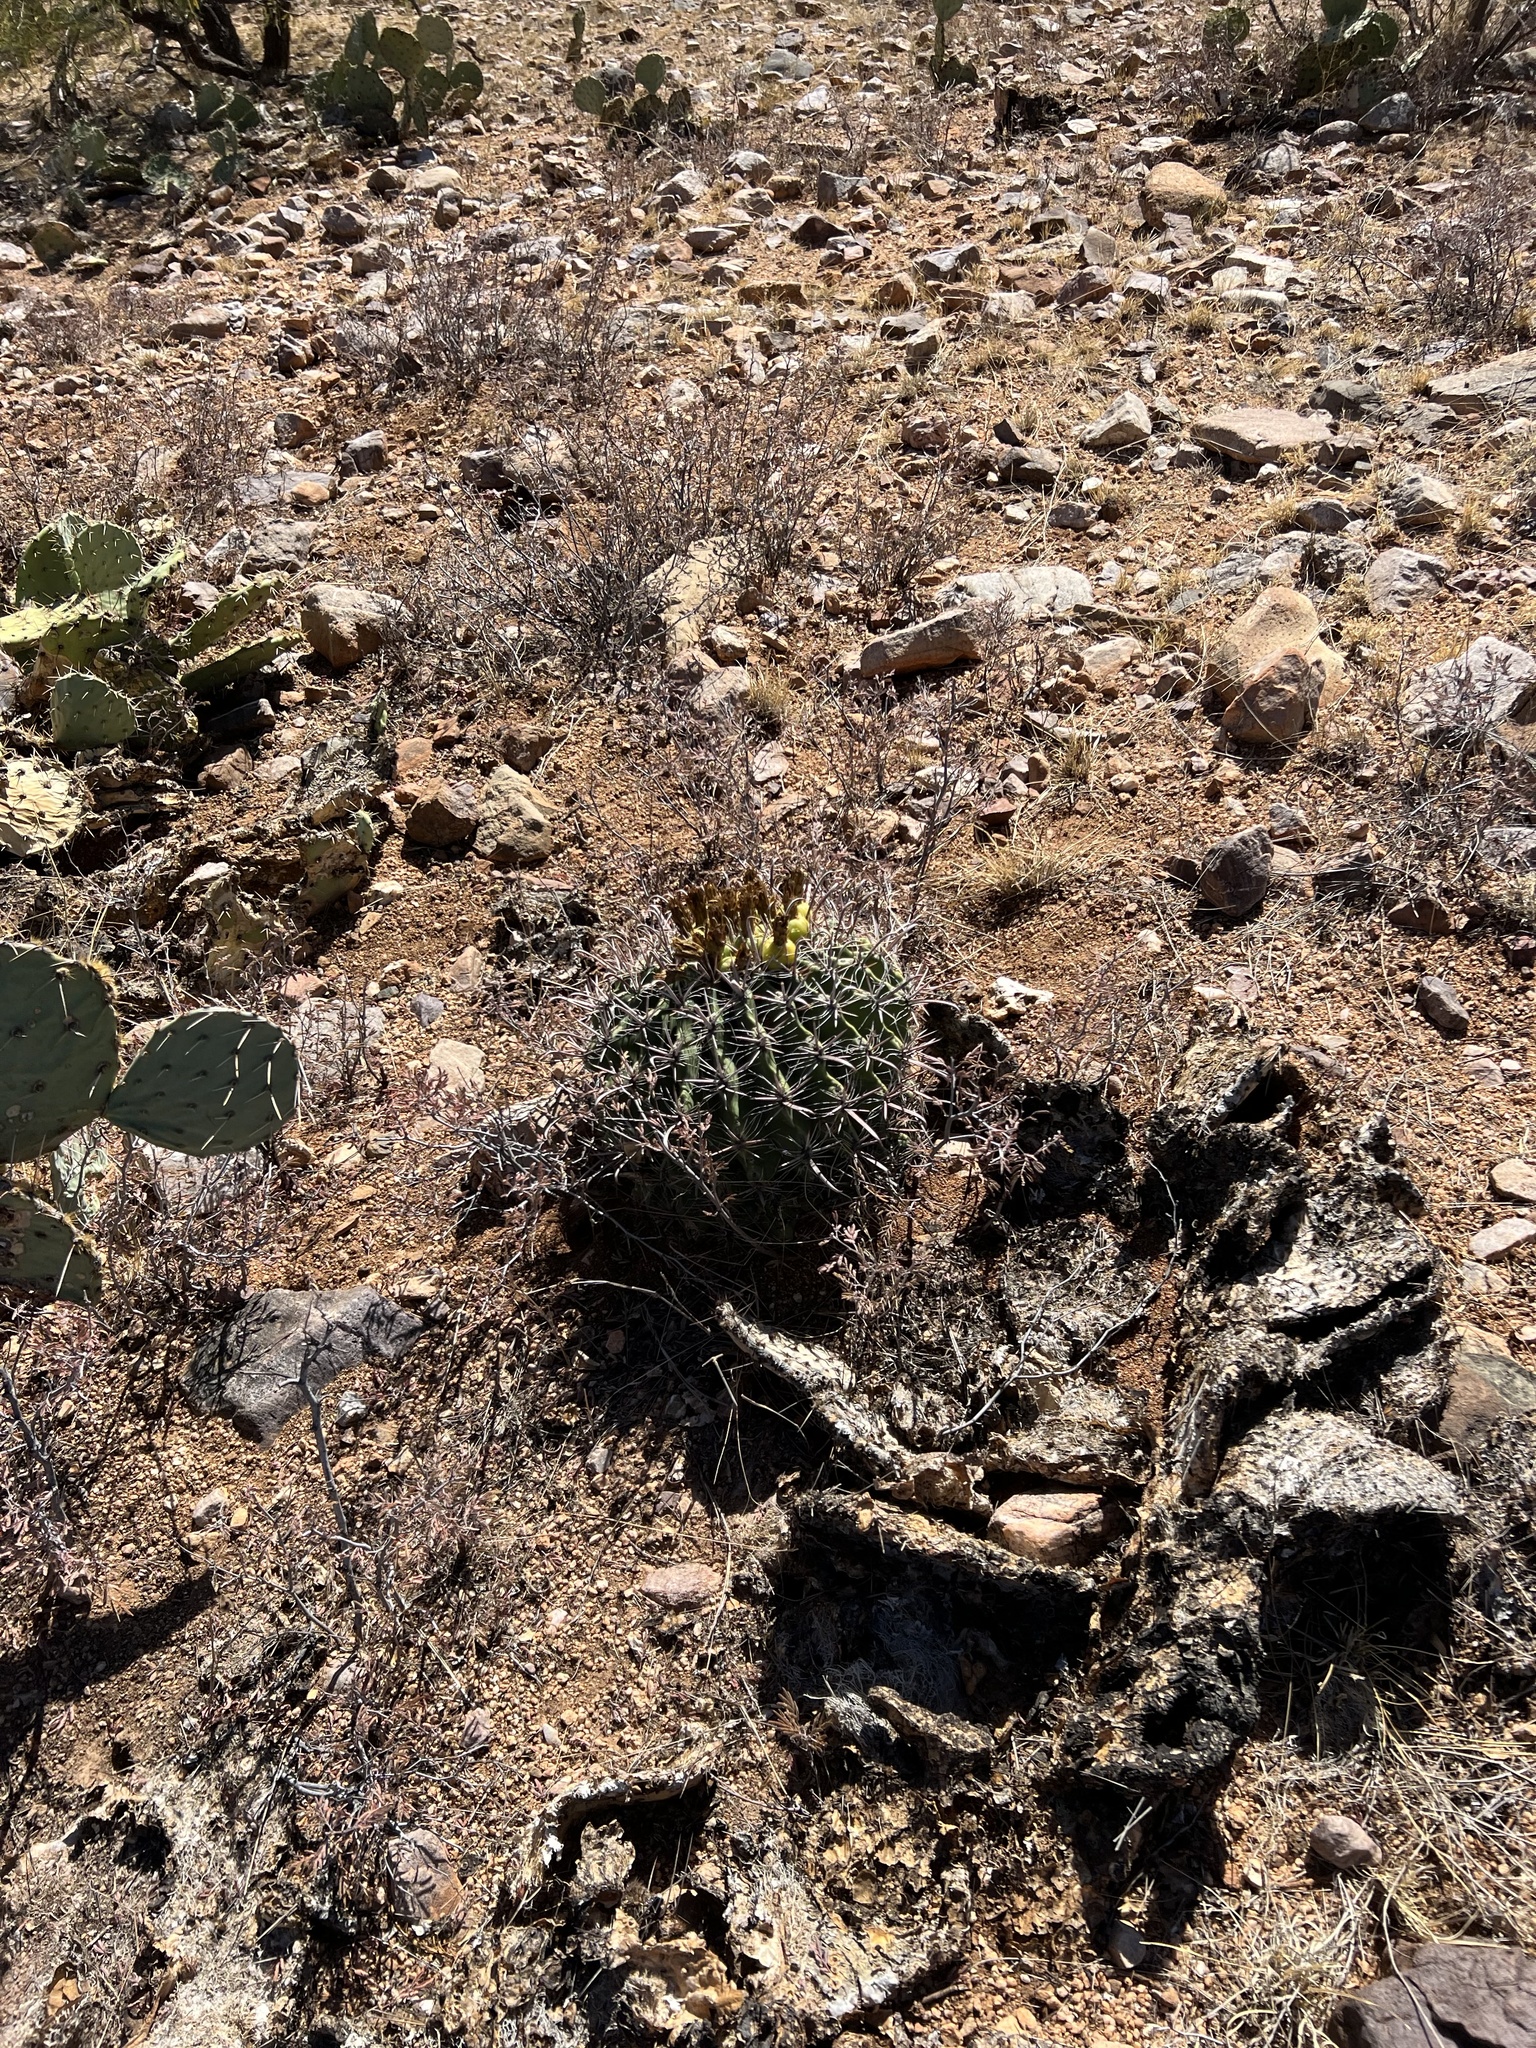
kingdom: Plantae
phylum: Tracheophyta
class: Magnoliopsida
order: Caryophyllales
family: Cactaceae
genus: Ferocactus
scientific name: Ferocactus wislizeni
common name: Candy barrel cactus
